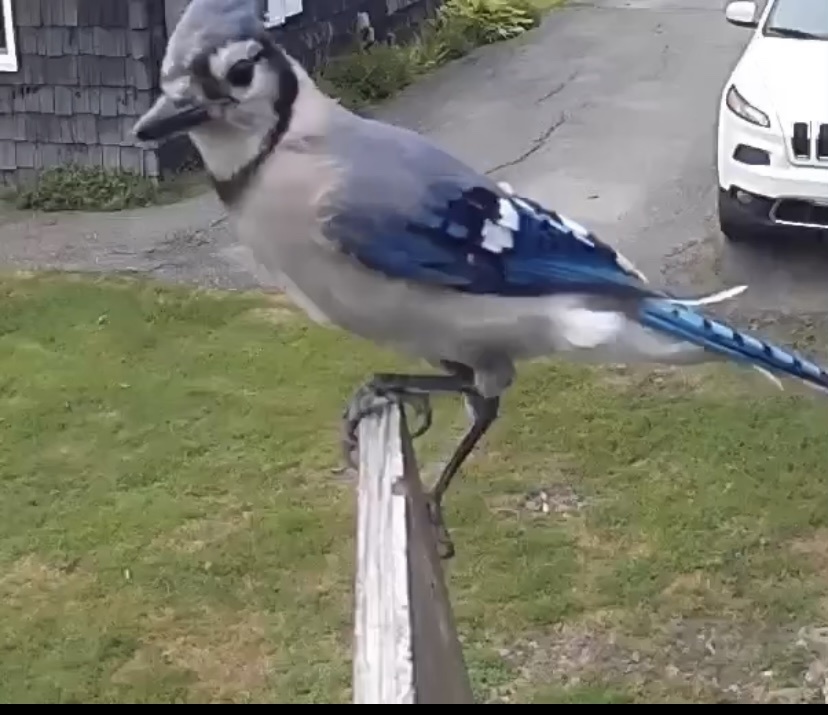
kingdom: Animalia
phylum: Chordata
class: Aves
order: Passeriformes
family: Corvidae
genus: Cyanocitta
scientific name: Cyanocitta cristata
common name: Blue jay
